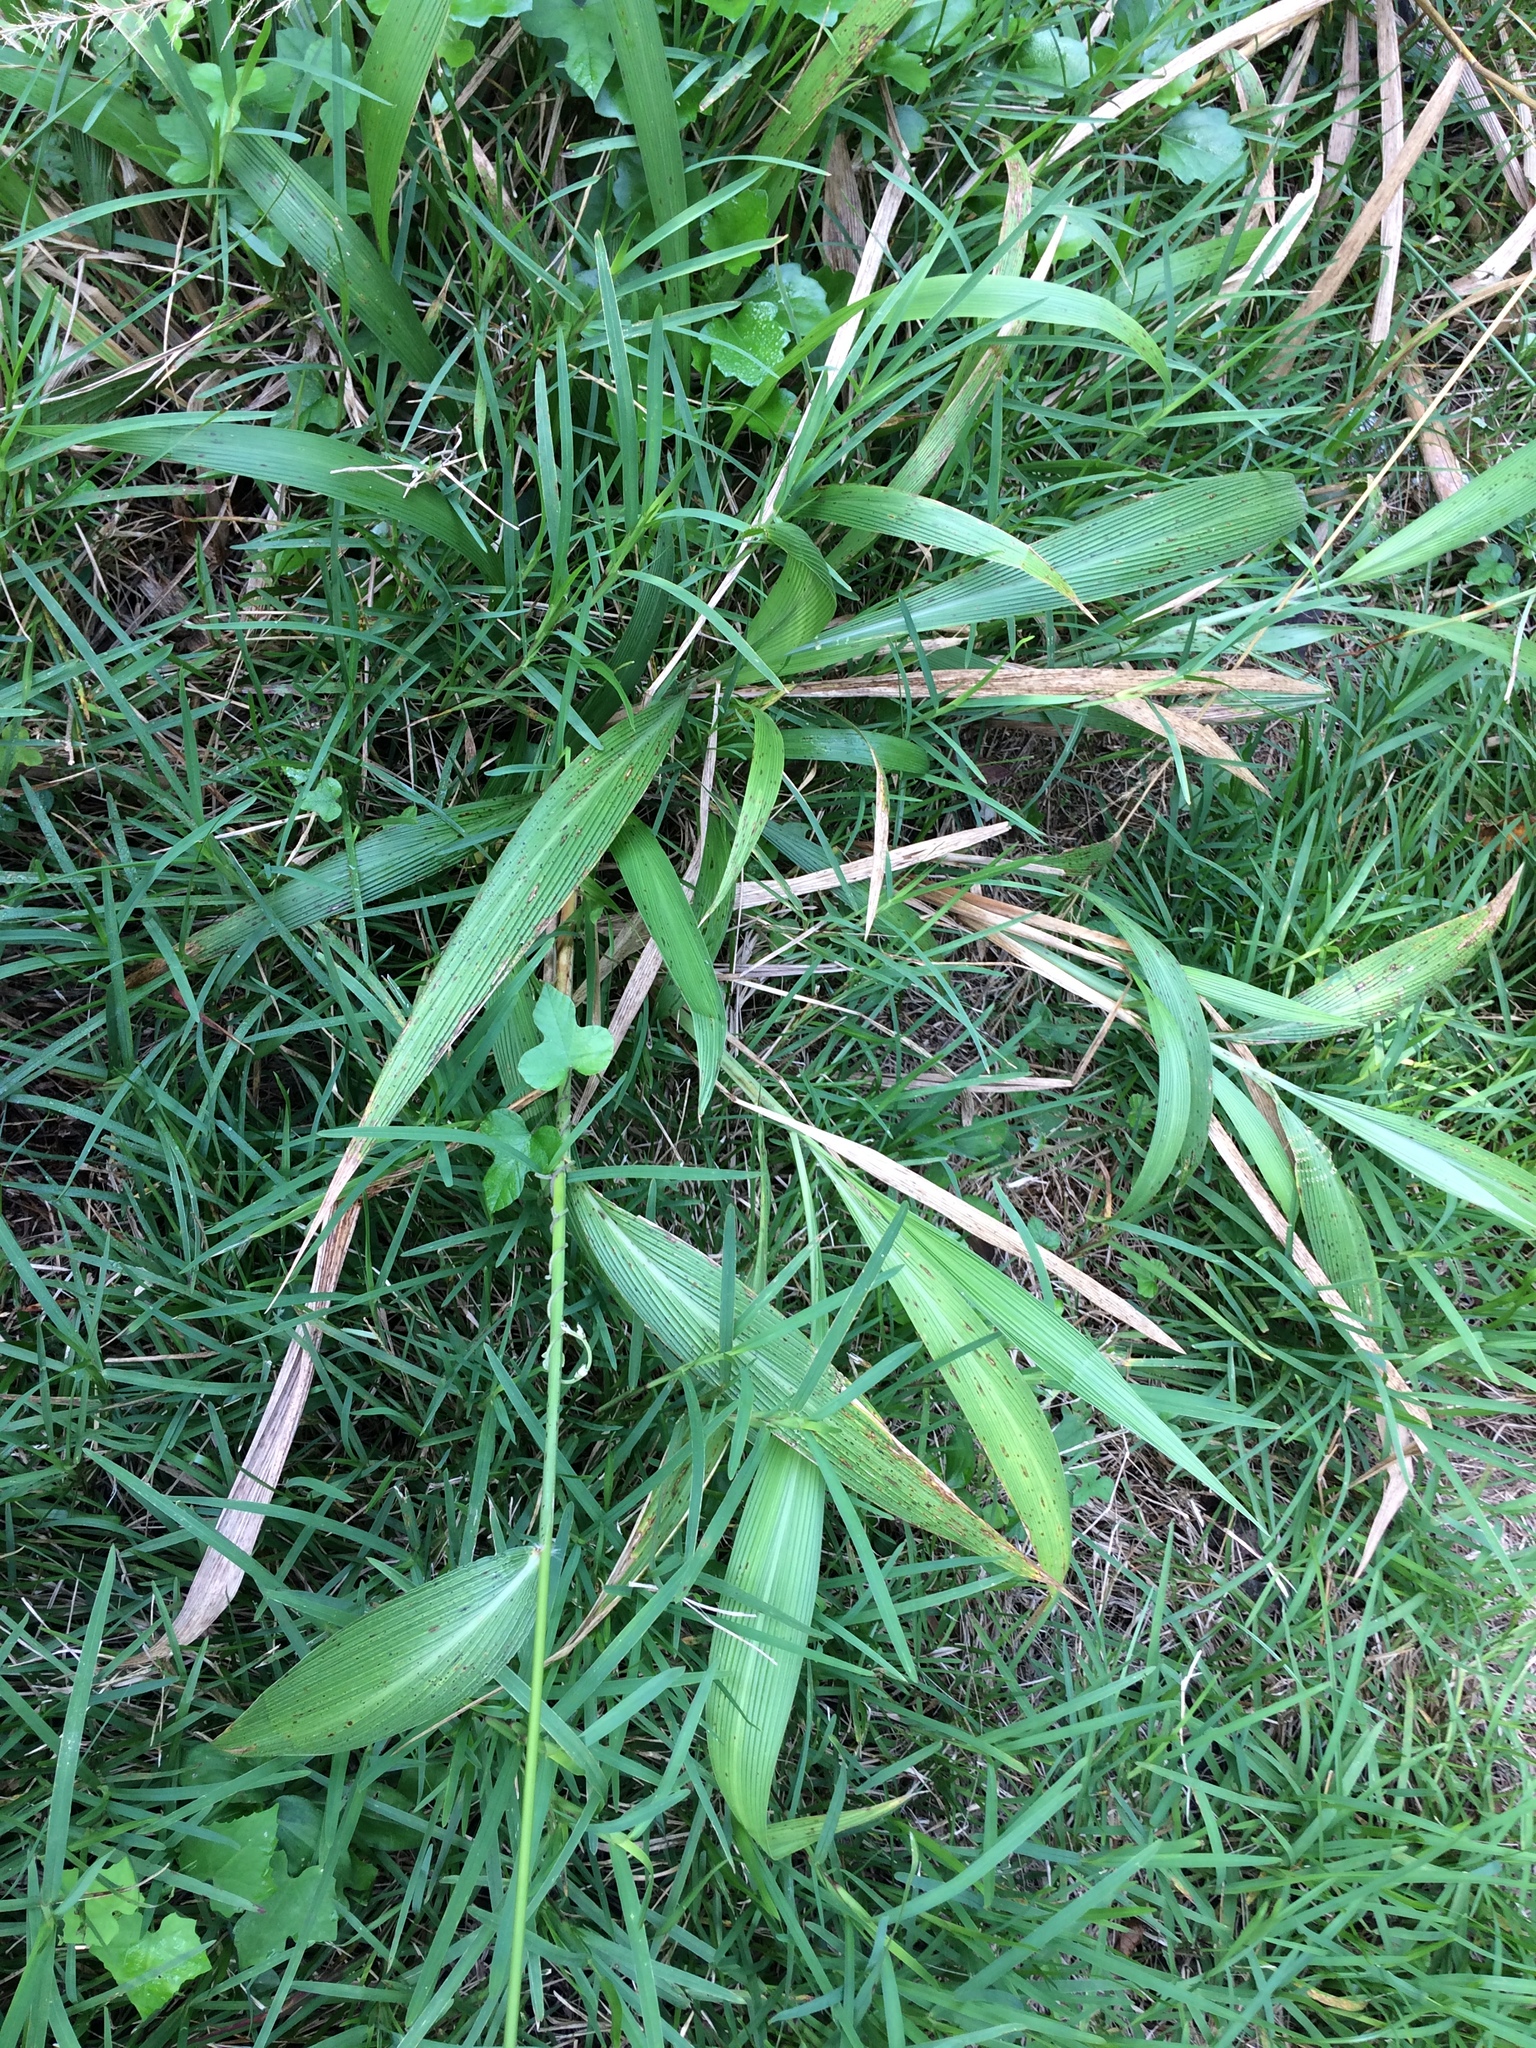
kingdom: Plantae
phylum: Tracheophyta
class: Liliopsida
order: Poales
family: Poaceae
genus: Setaria
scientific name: Setaria megaphylla
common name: Bigleaf bristlegrass
